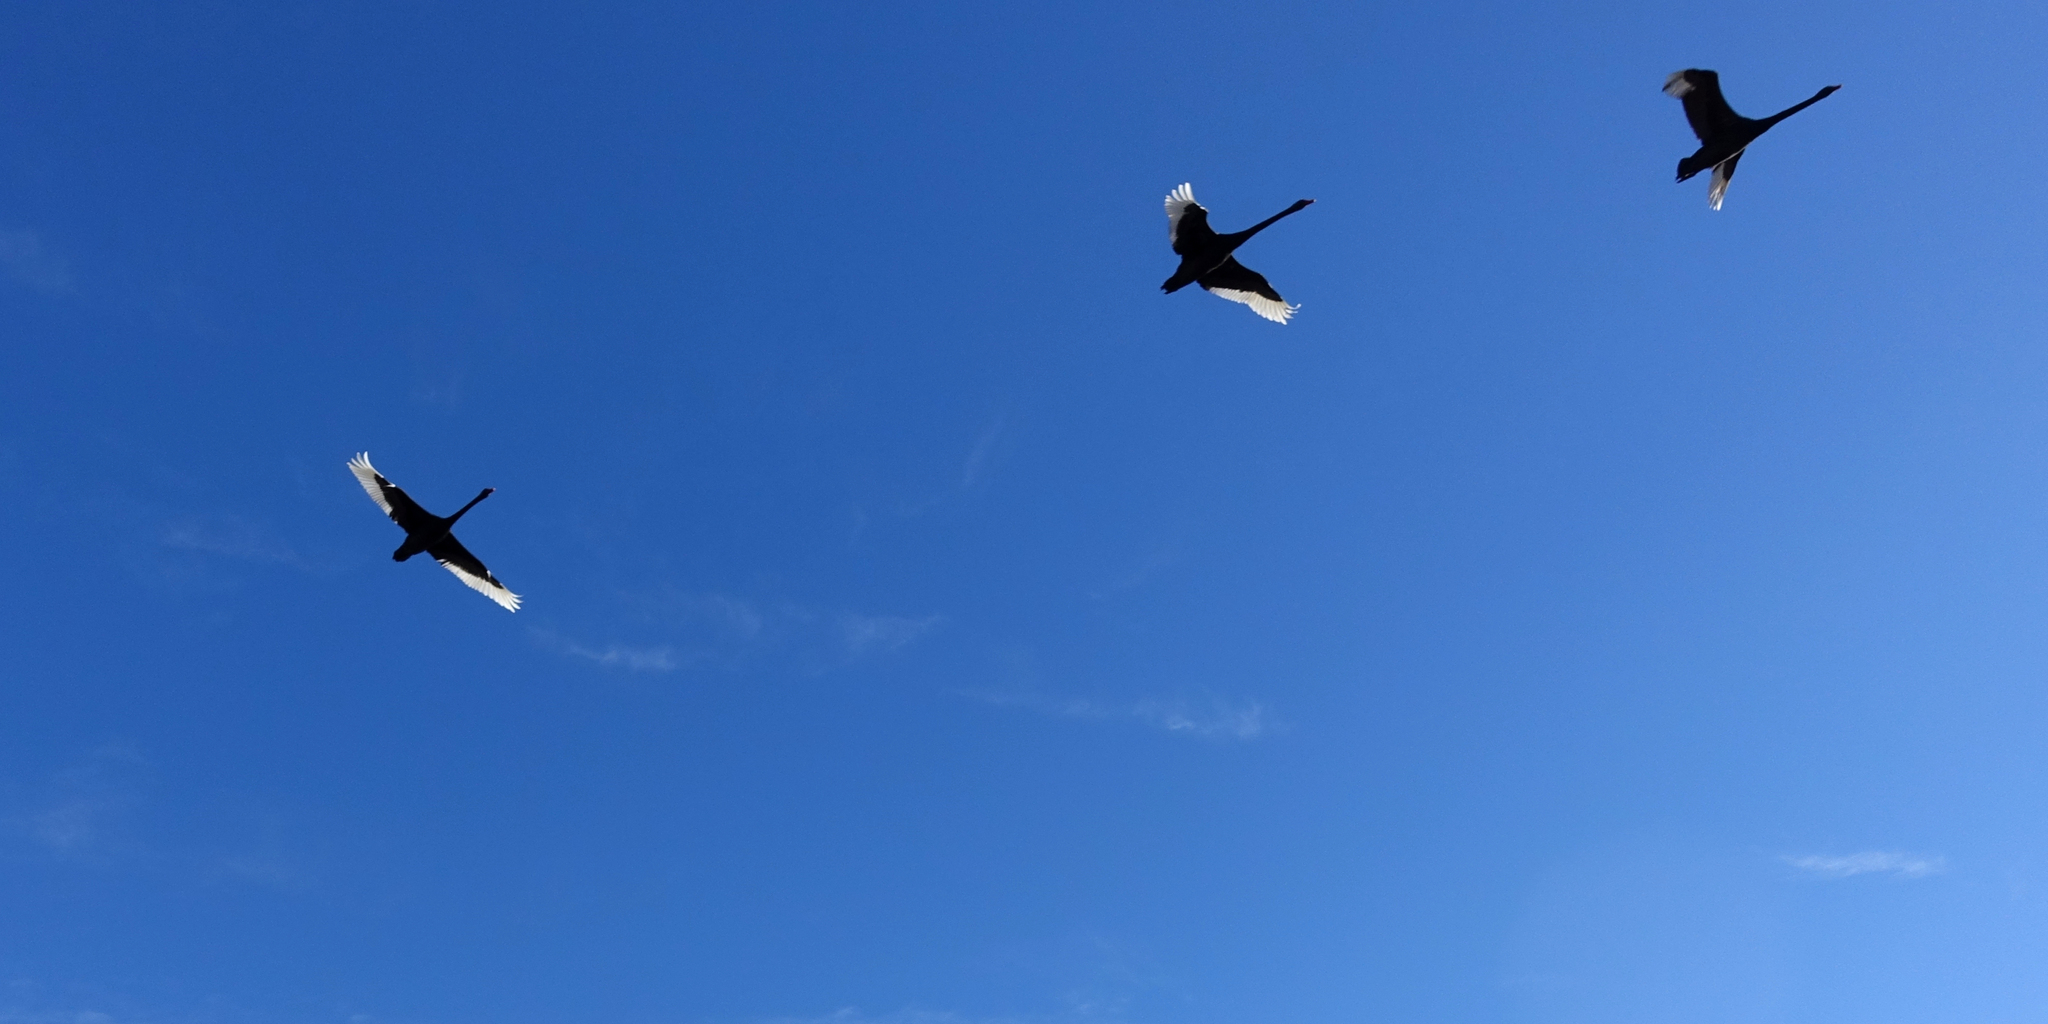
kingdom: Animalia
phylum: Chordata
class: Aves
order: Anseriformes
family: Anatidae
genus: Cygnus
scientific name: Cygnus atratus
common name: Black swan
